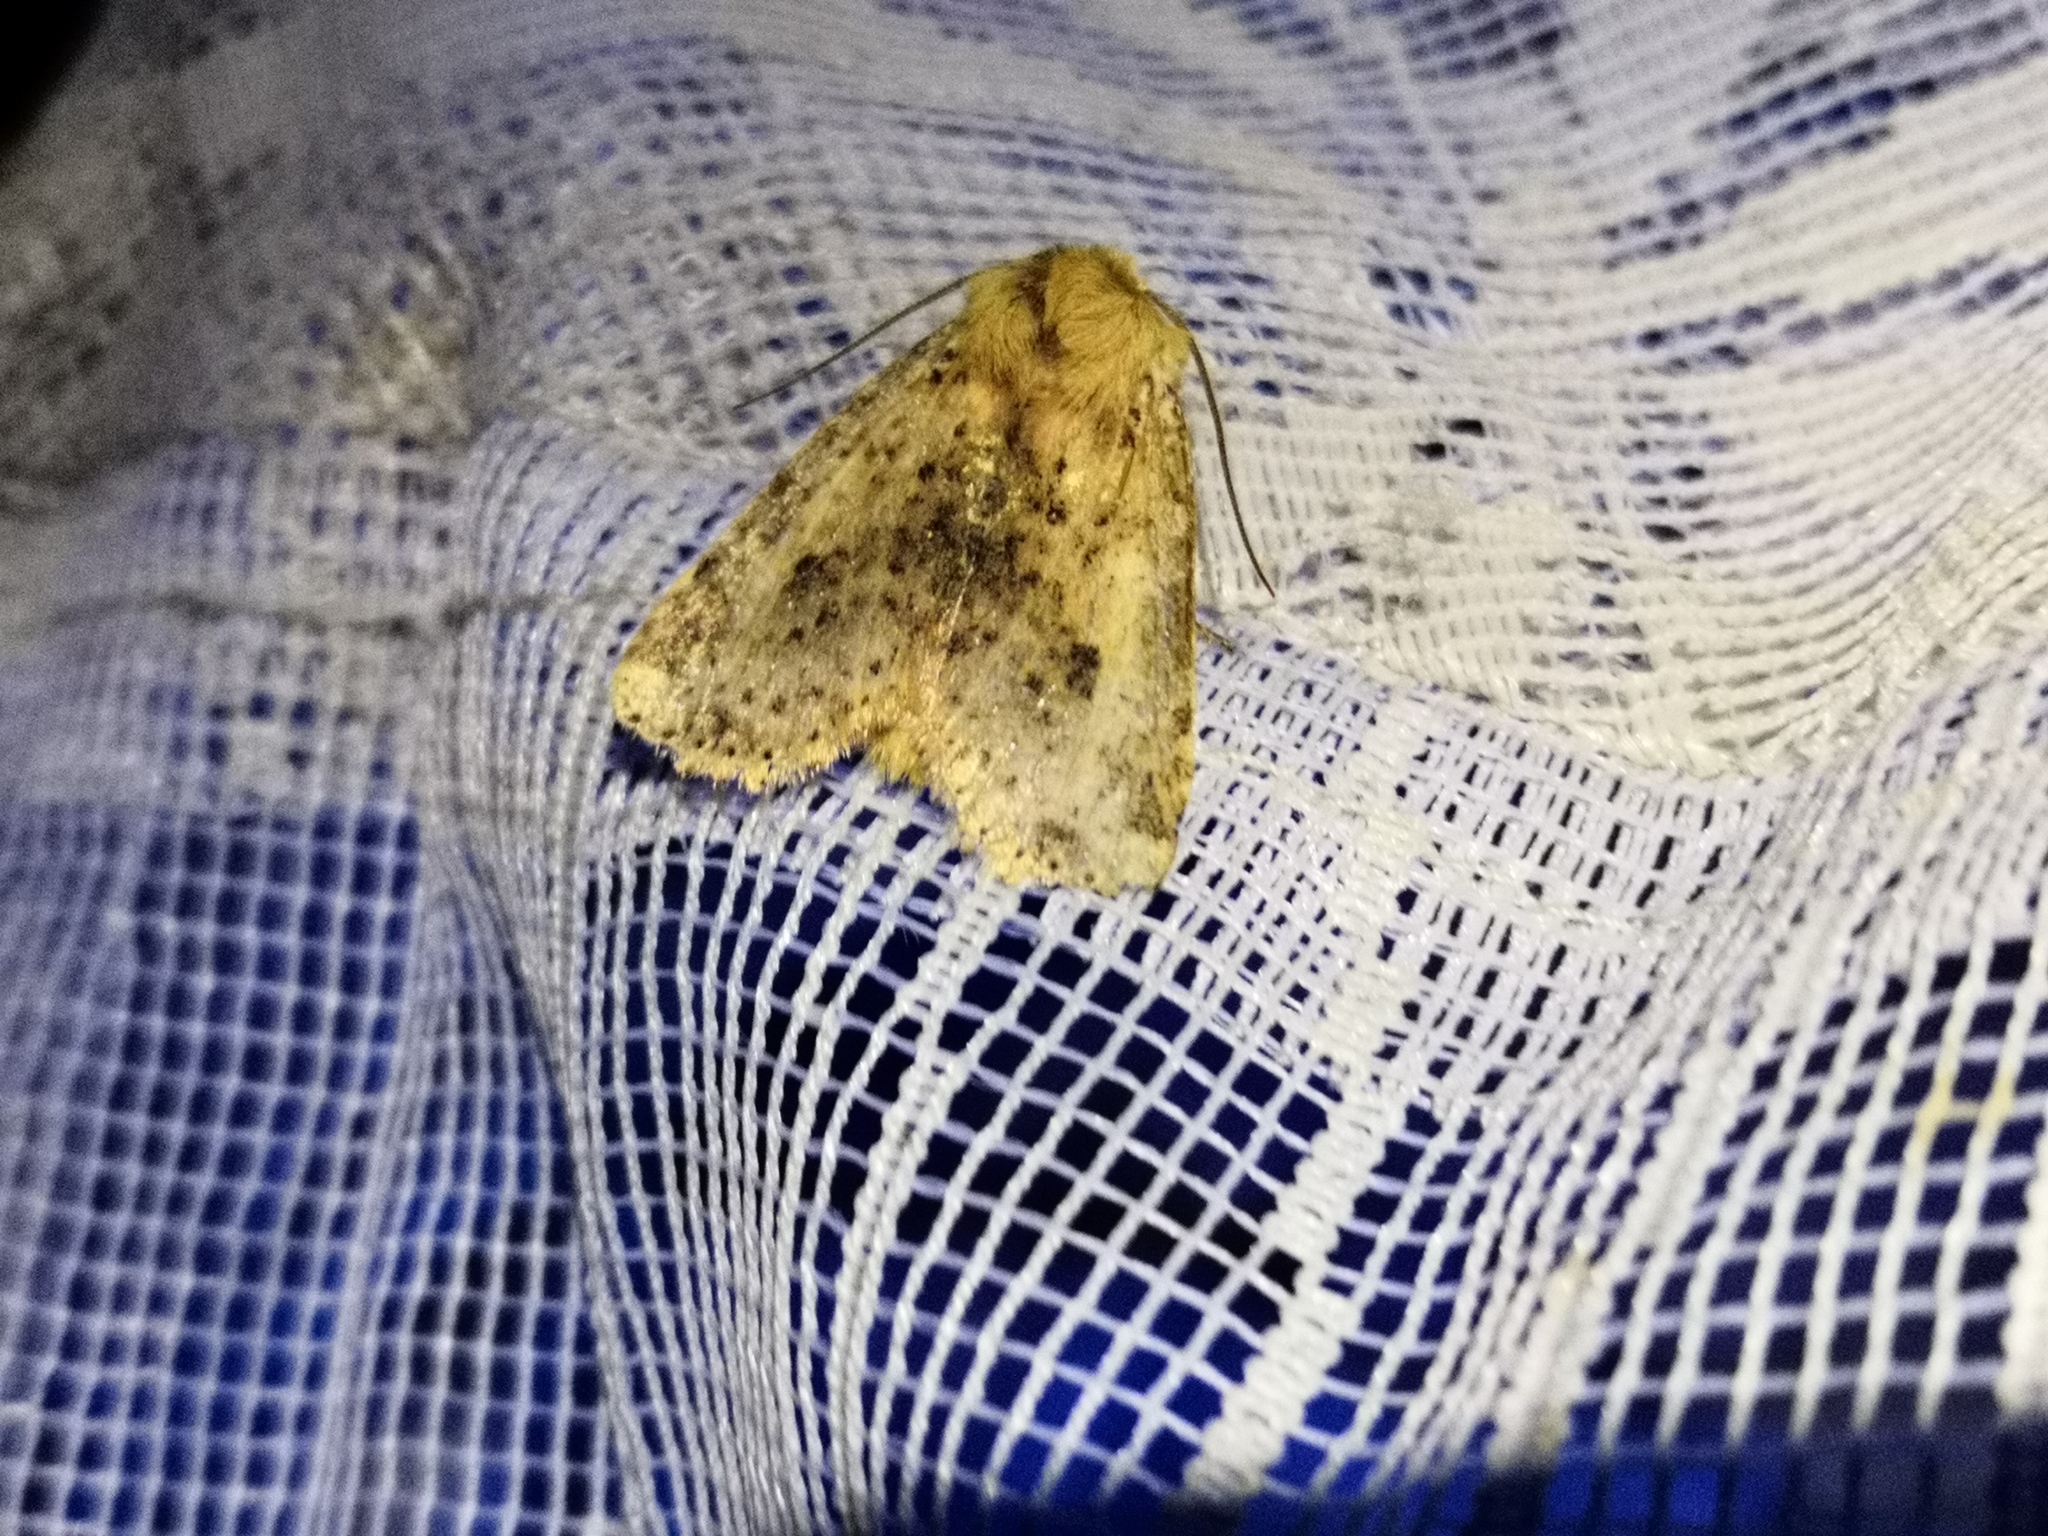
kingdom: Animalia
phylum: Arthropoda
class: Insecta
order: Lepidoptera
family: Noctuidae
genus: Conistra
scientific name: Conistra rubiginea
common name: Dotted chestnut
